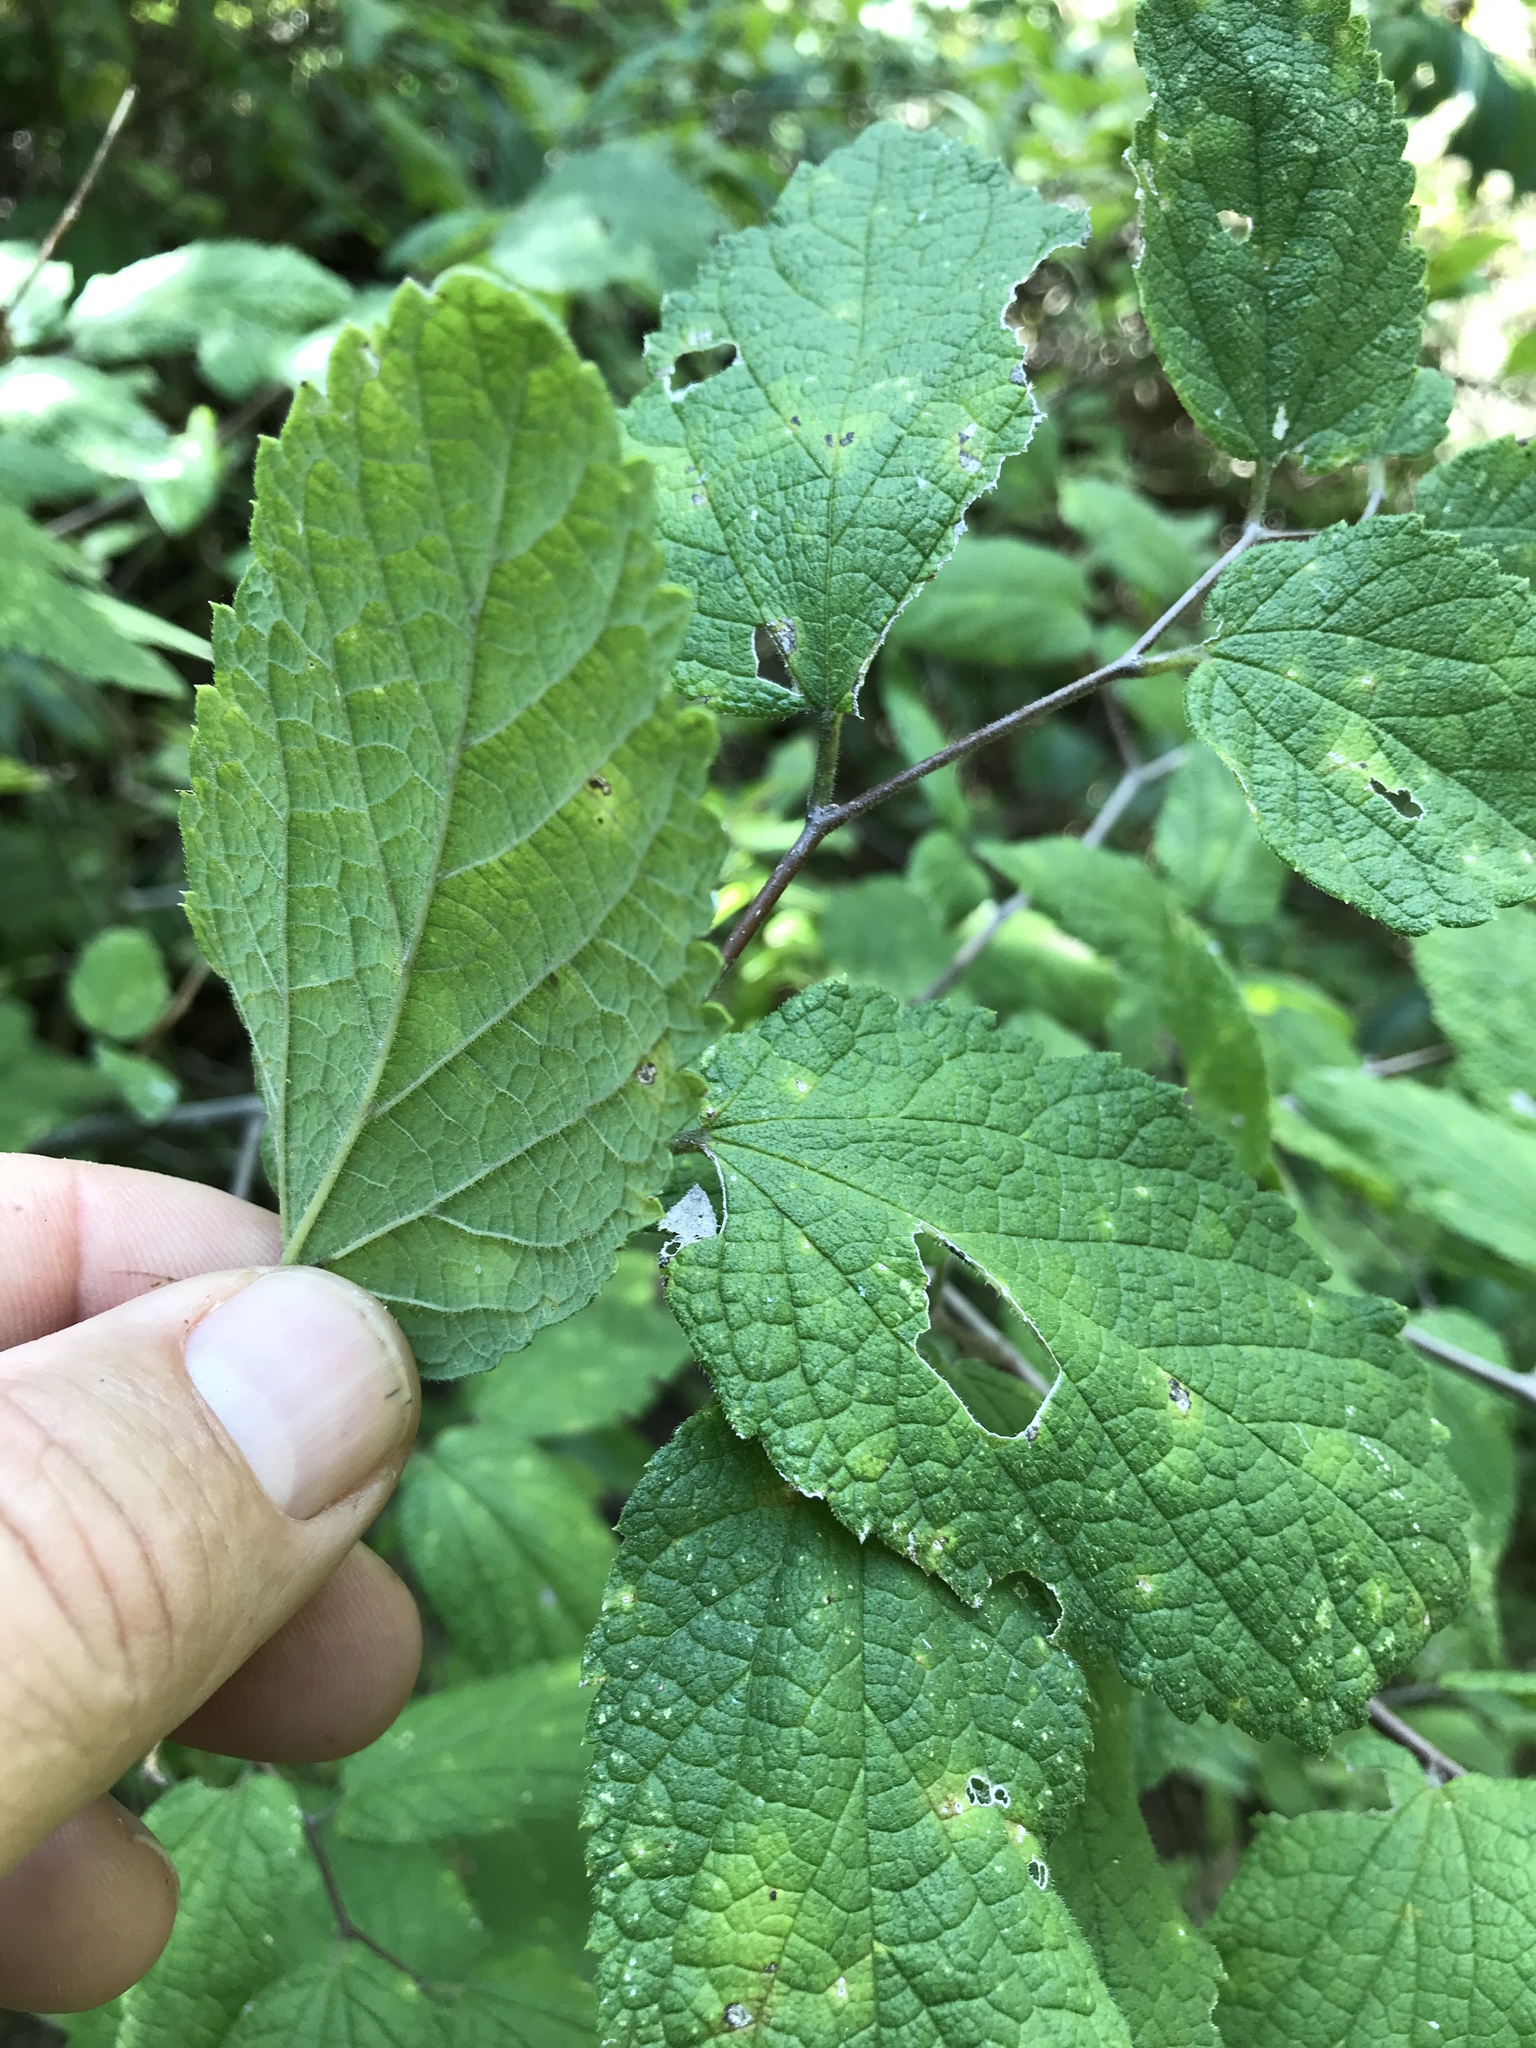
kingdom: Plantae
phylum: Tracheophyta
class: Magnoliopsida
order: Rosales
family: Cannabaceae
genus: Celtis
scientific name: Celtis reticulata
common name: Netleaf hackberry
